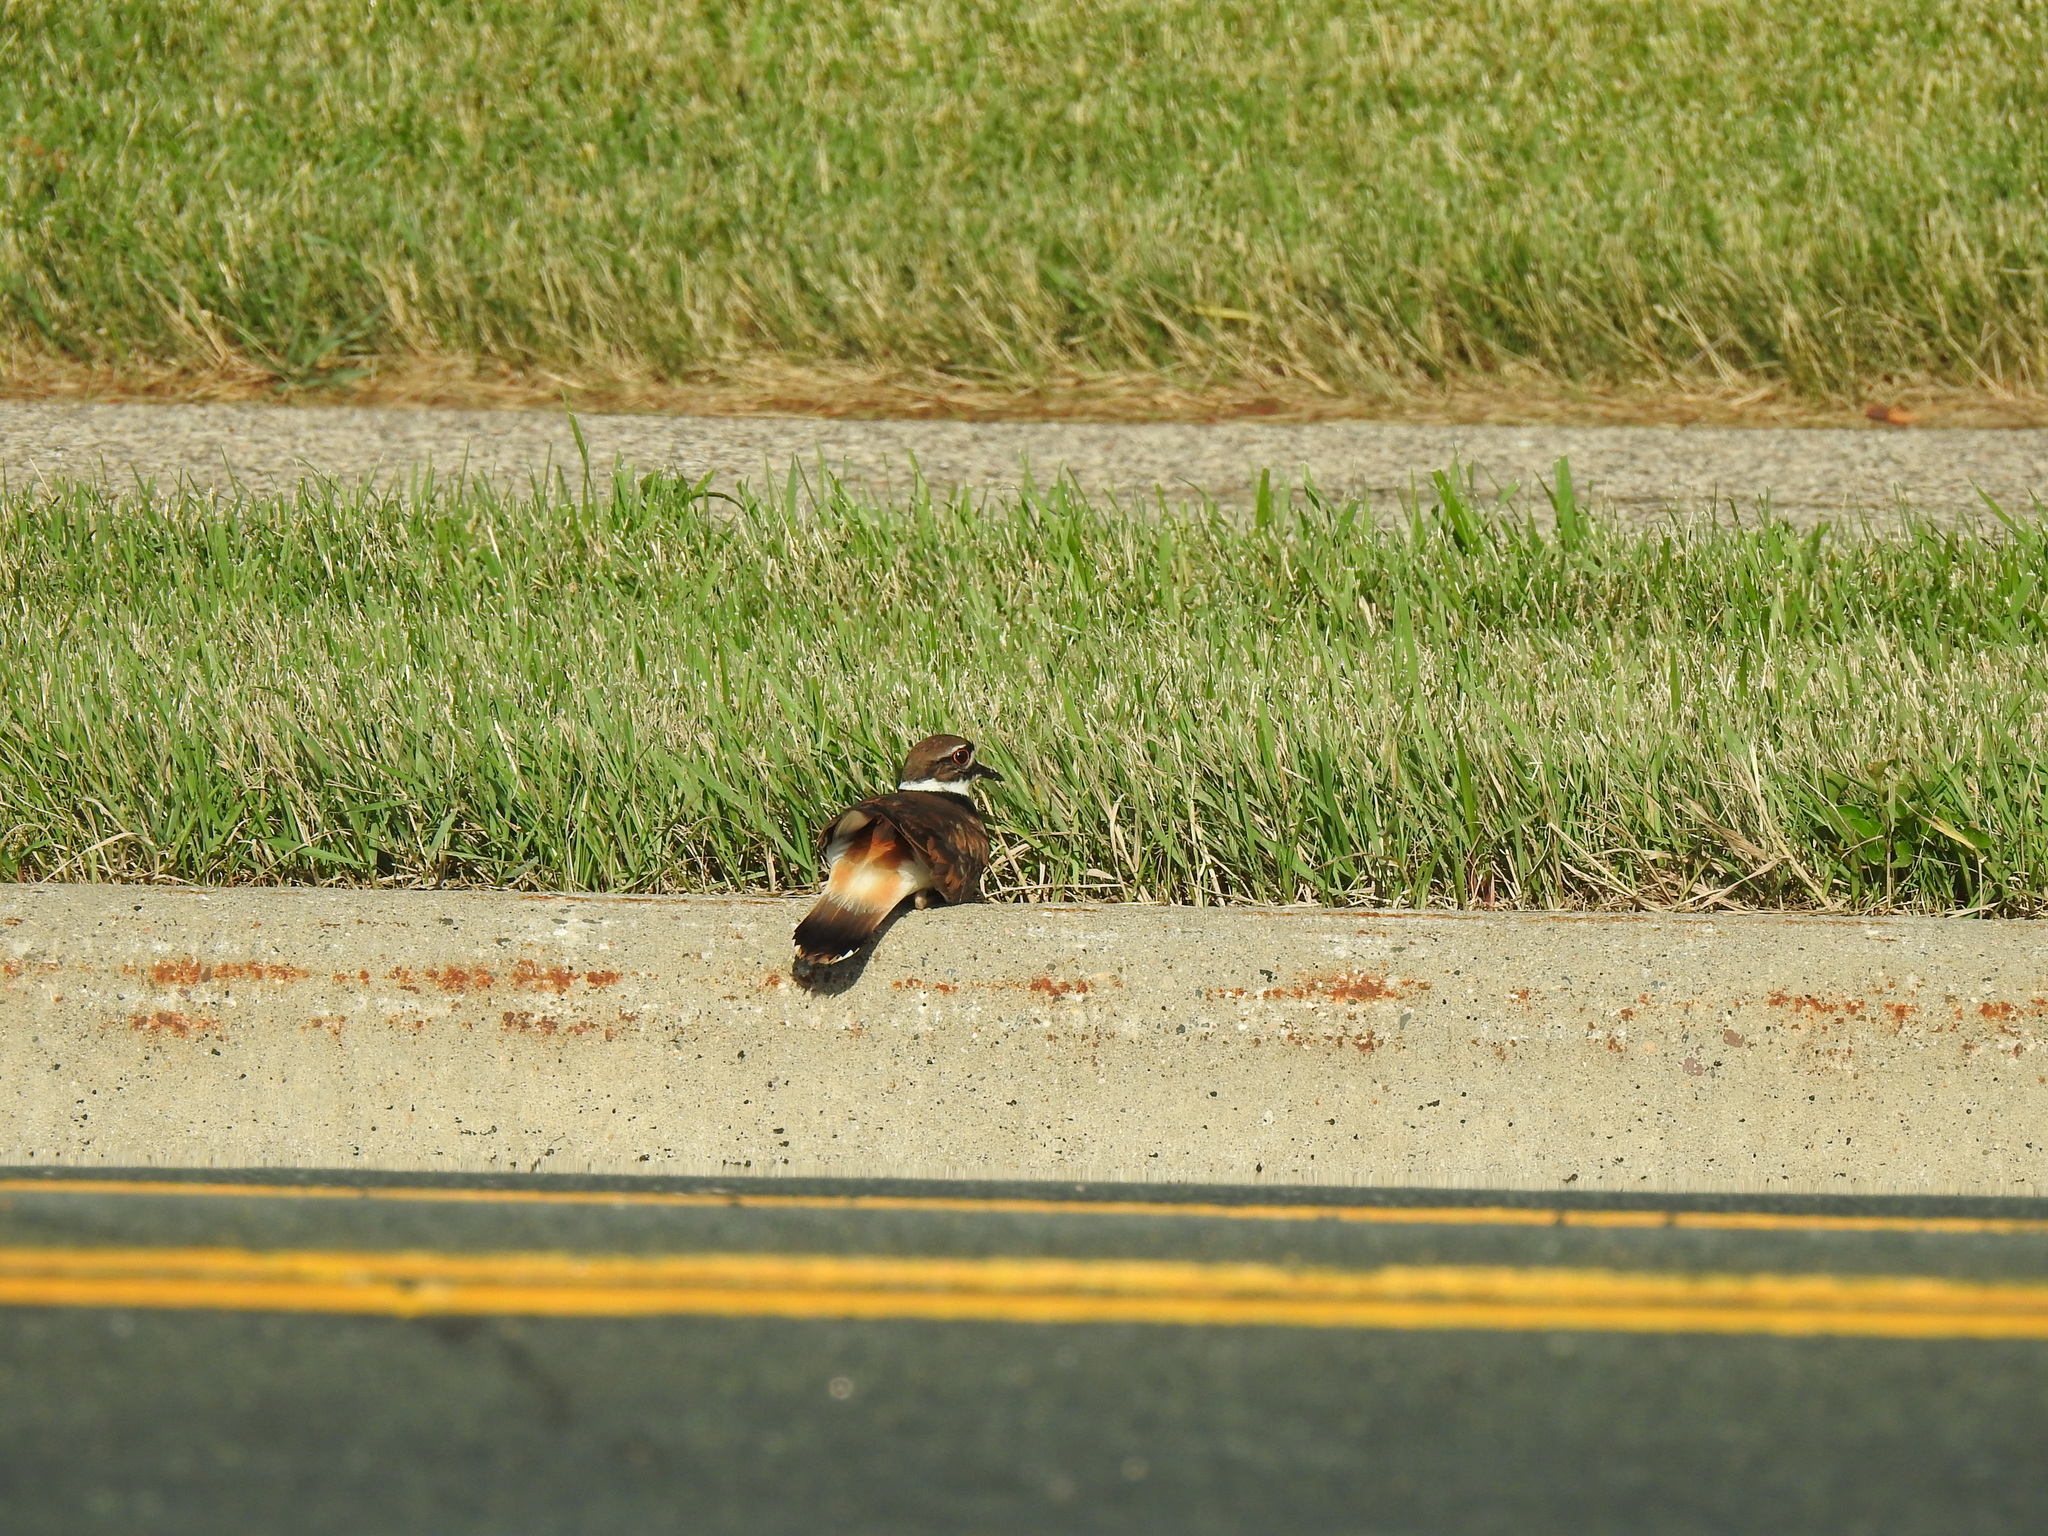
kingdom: Animalia
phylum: Chordata
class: Aves
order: Charadriiformes
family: Charadriidae
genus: Charadrius
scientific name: Charadrius vociferus
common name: Killdeer
